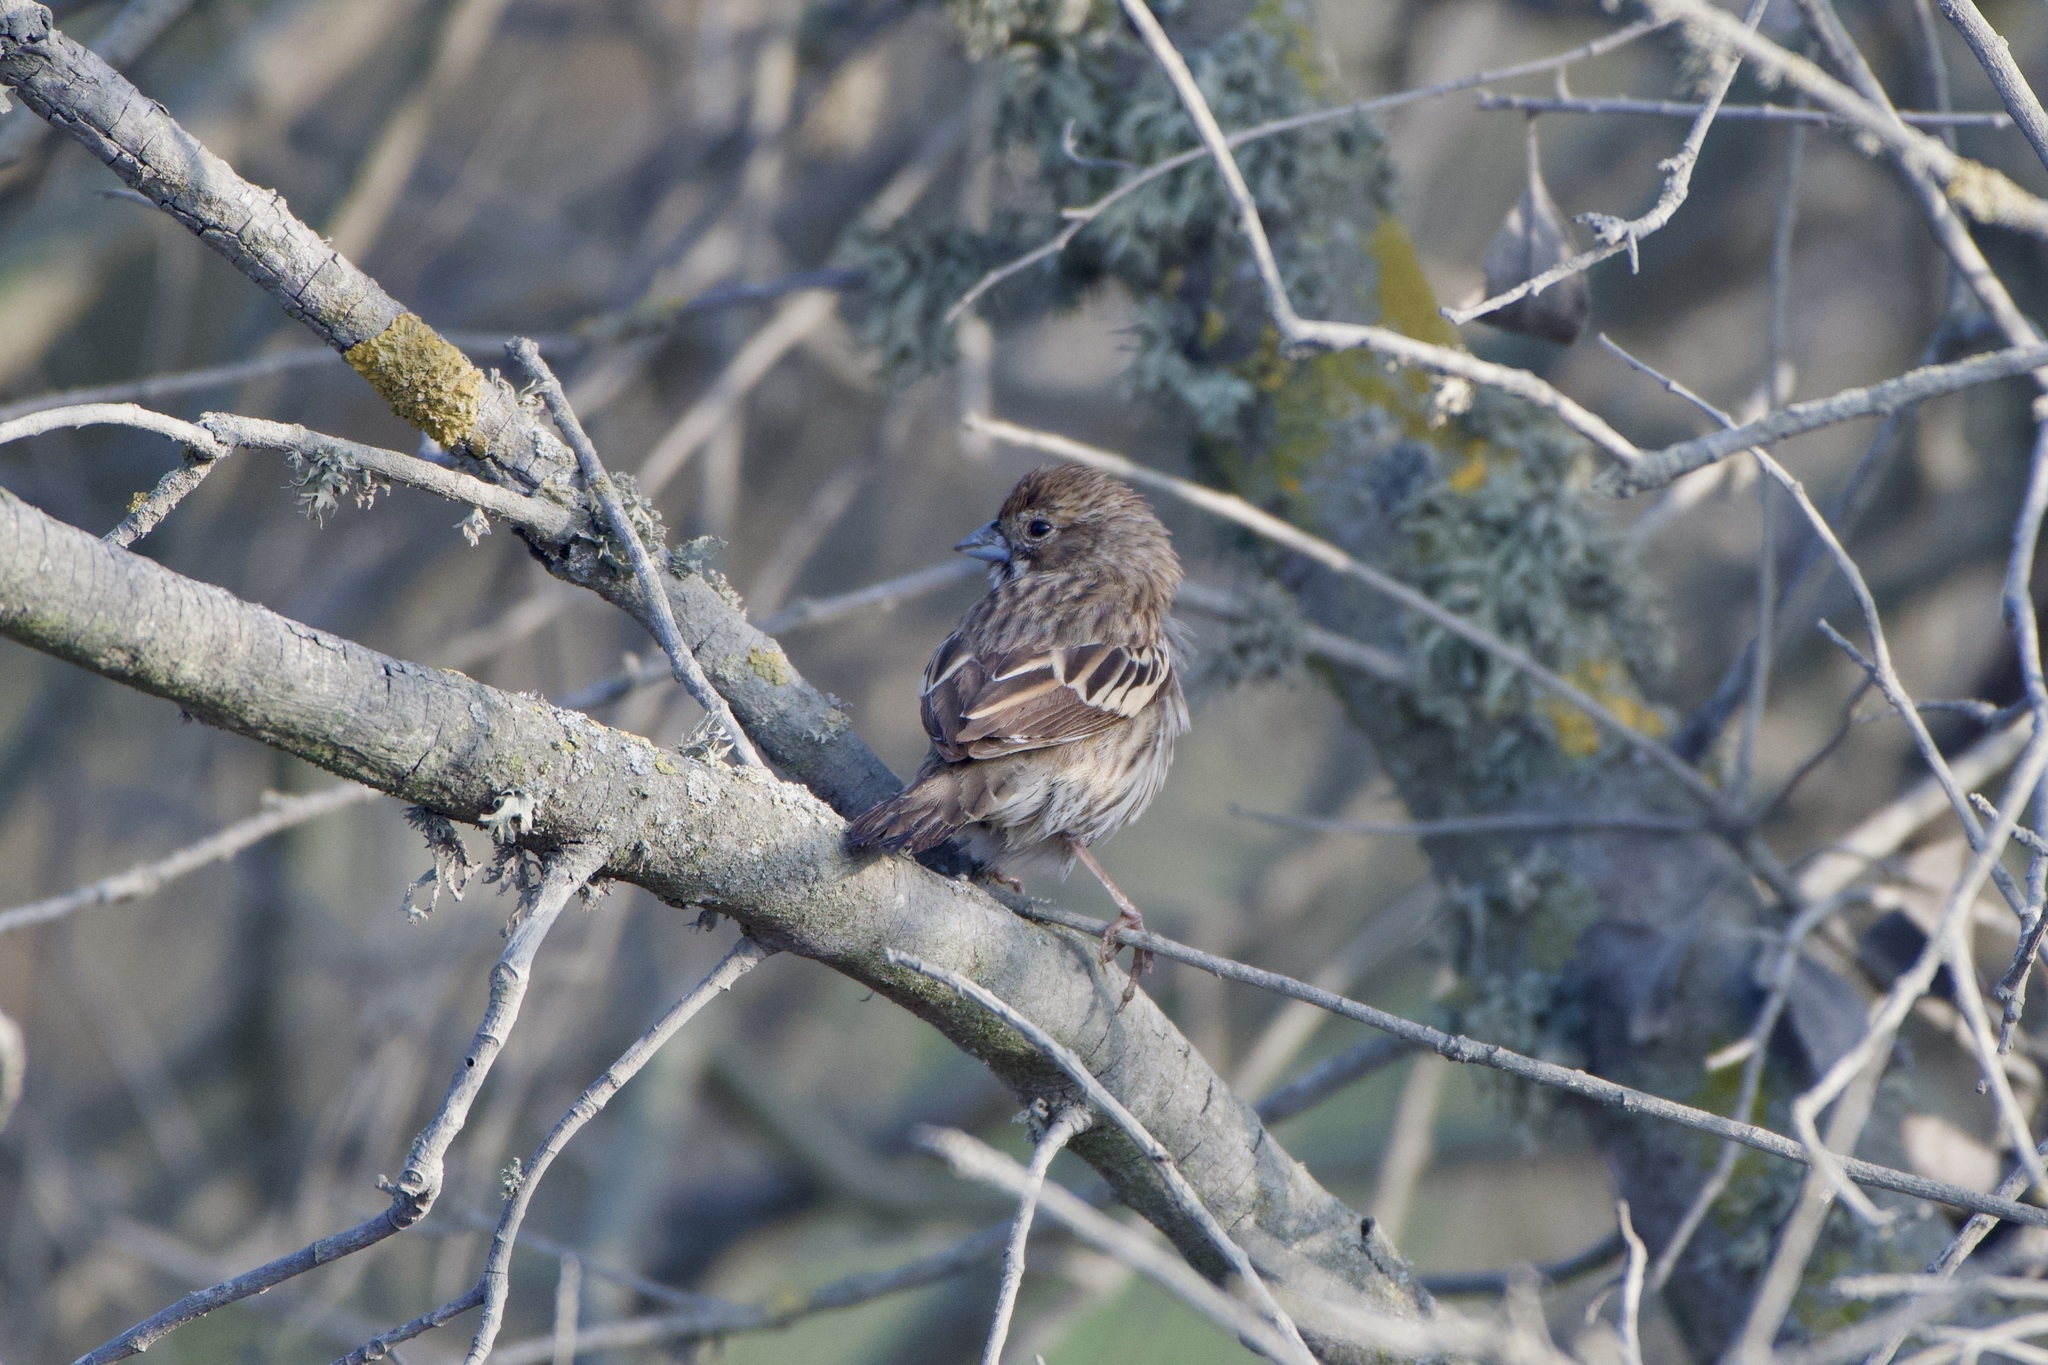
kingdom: Animalia
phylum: Chordata
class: Aves
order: Passeriformes
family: Passerellidae
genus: Calamospiza
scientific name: Calamospiza melanocorys
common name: Lark bunting
